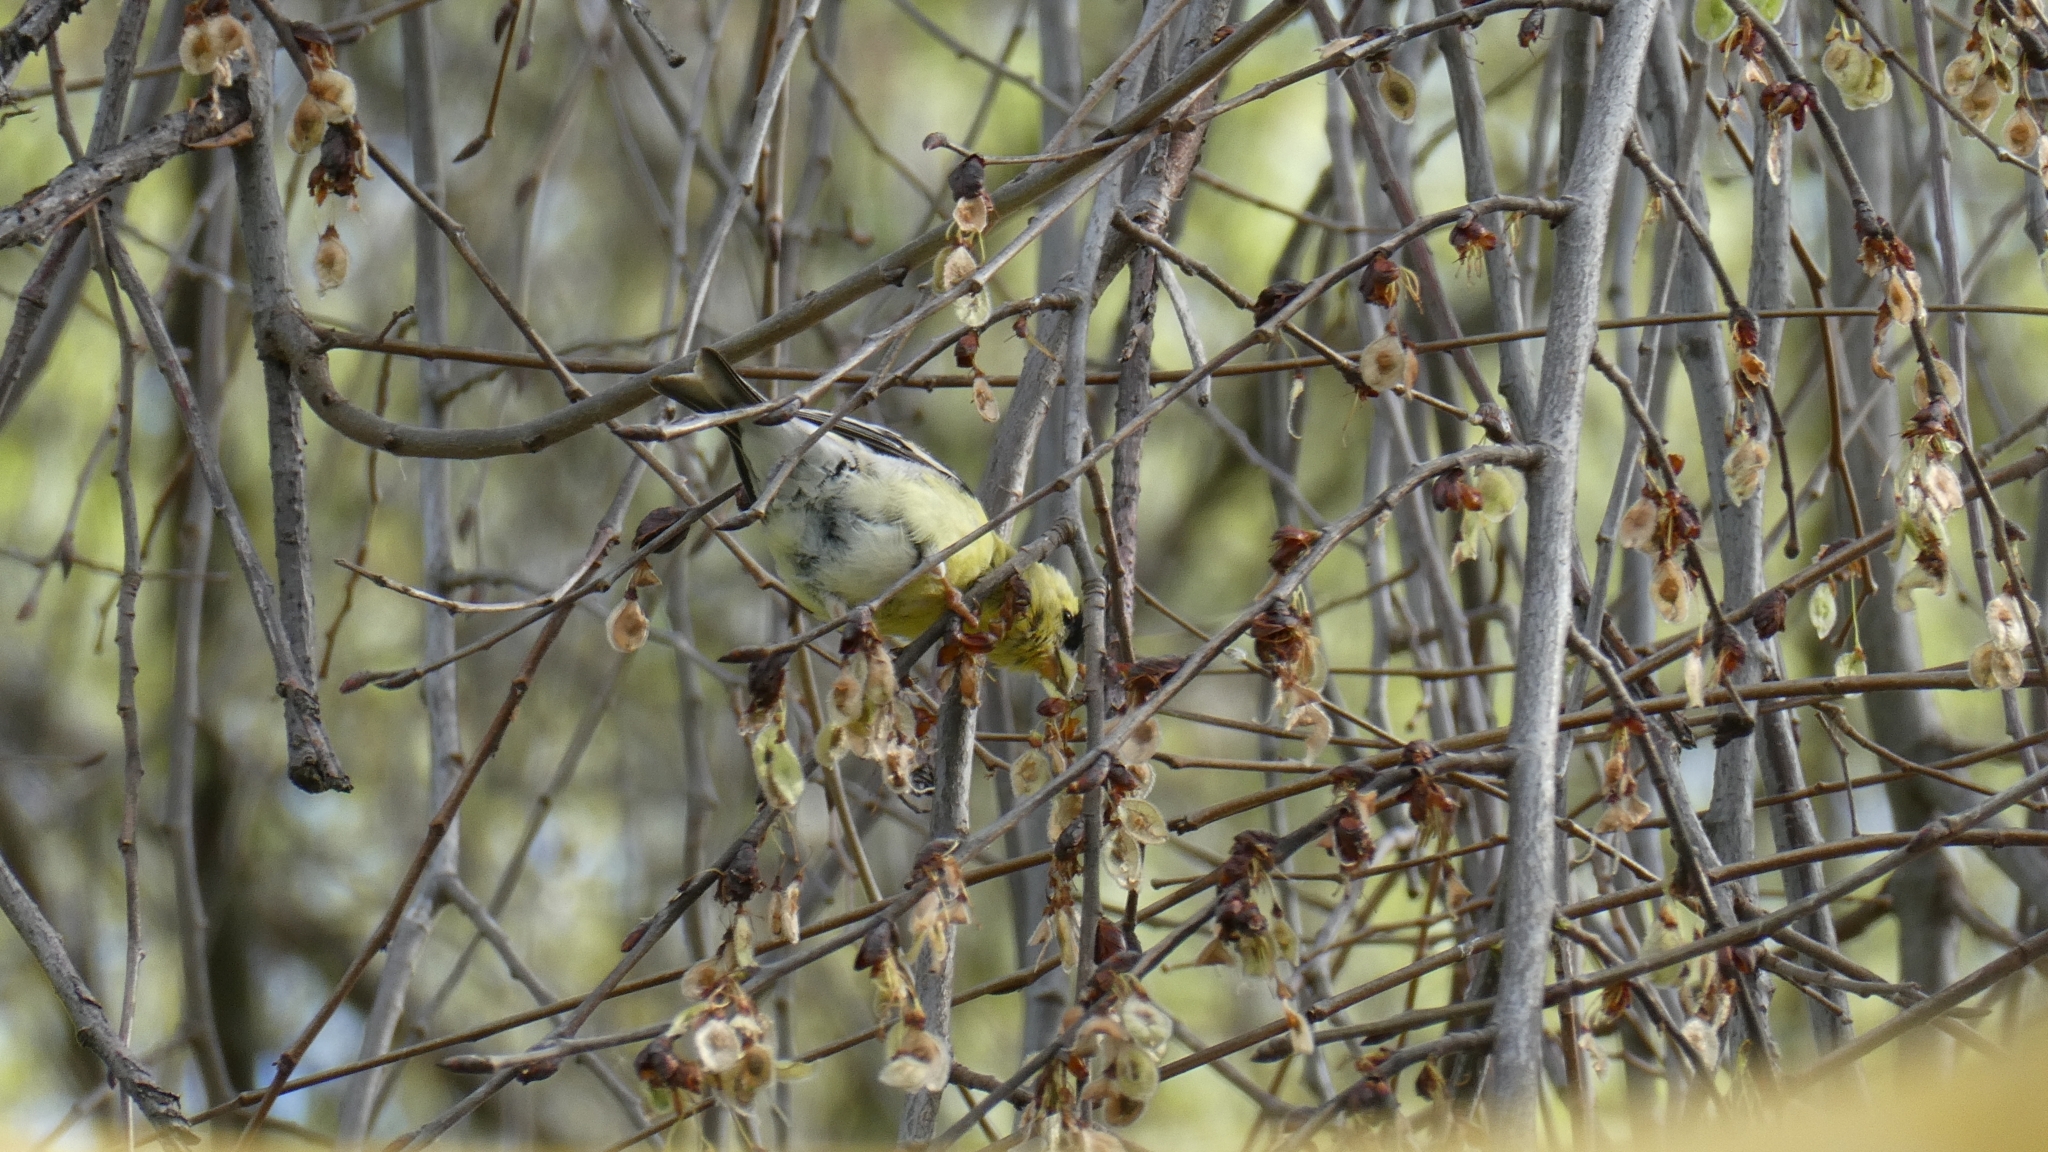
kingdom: Animalia
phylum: Chordata
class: Aves
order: Passeriformes
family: Fringillidae
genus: Spinus
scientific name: Spinus tristis
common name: American goldfinch
